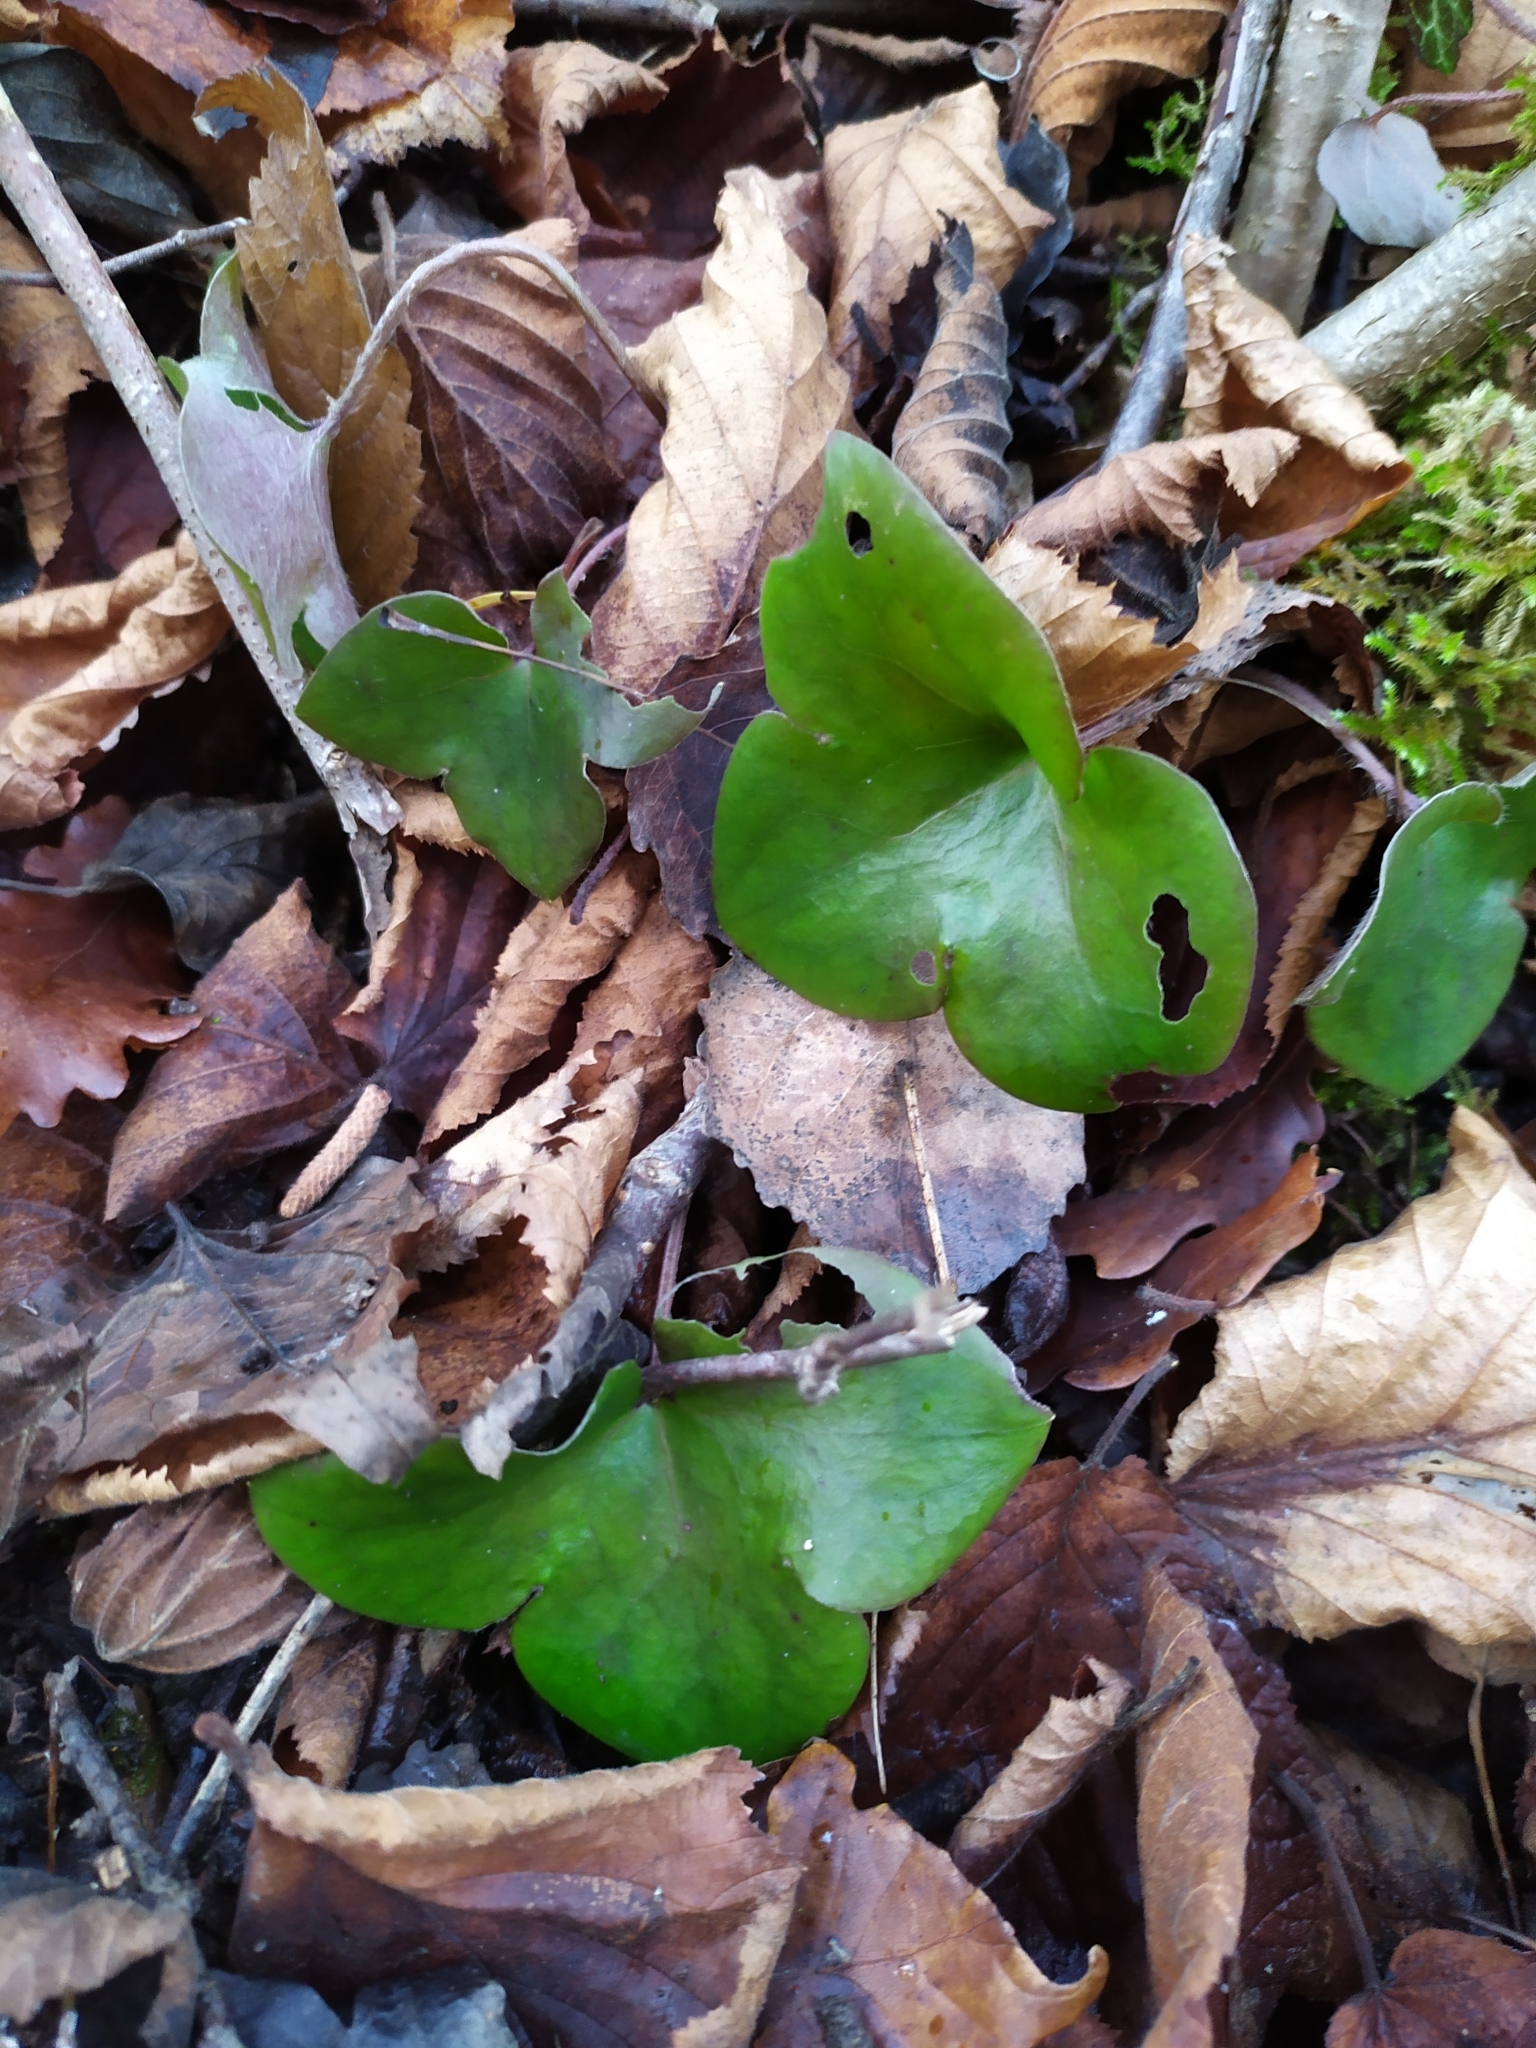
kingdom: Plantae
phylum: Tracheophyta
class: Magnoliopsida
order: Ranunculales
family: Ranunculaceae
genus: Hepatica
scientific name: Hepatica nobilis
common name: Liverleaf
